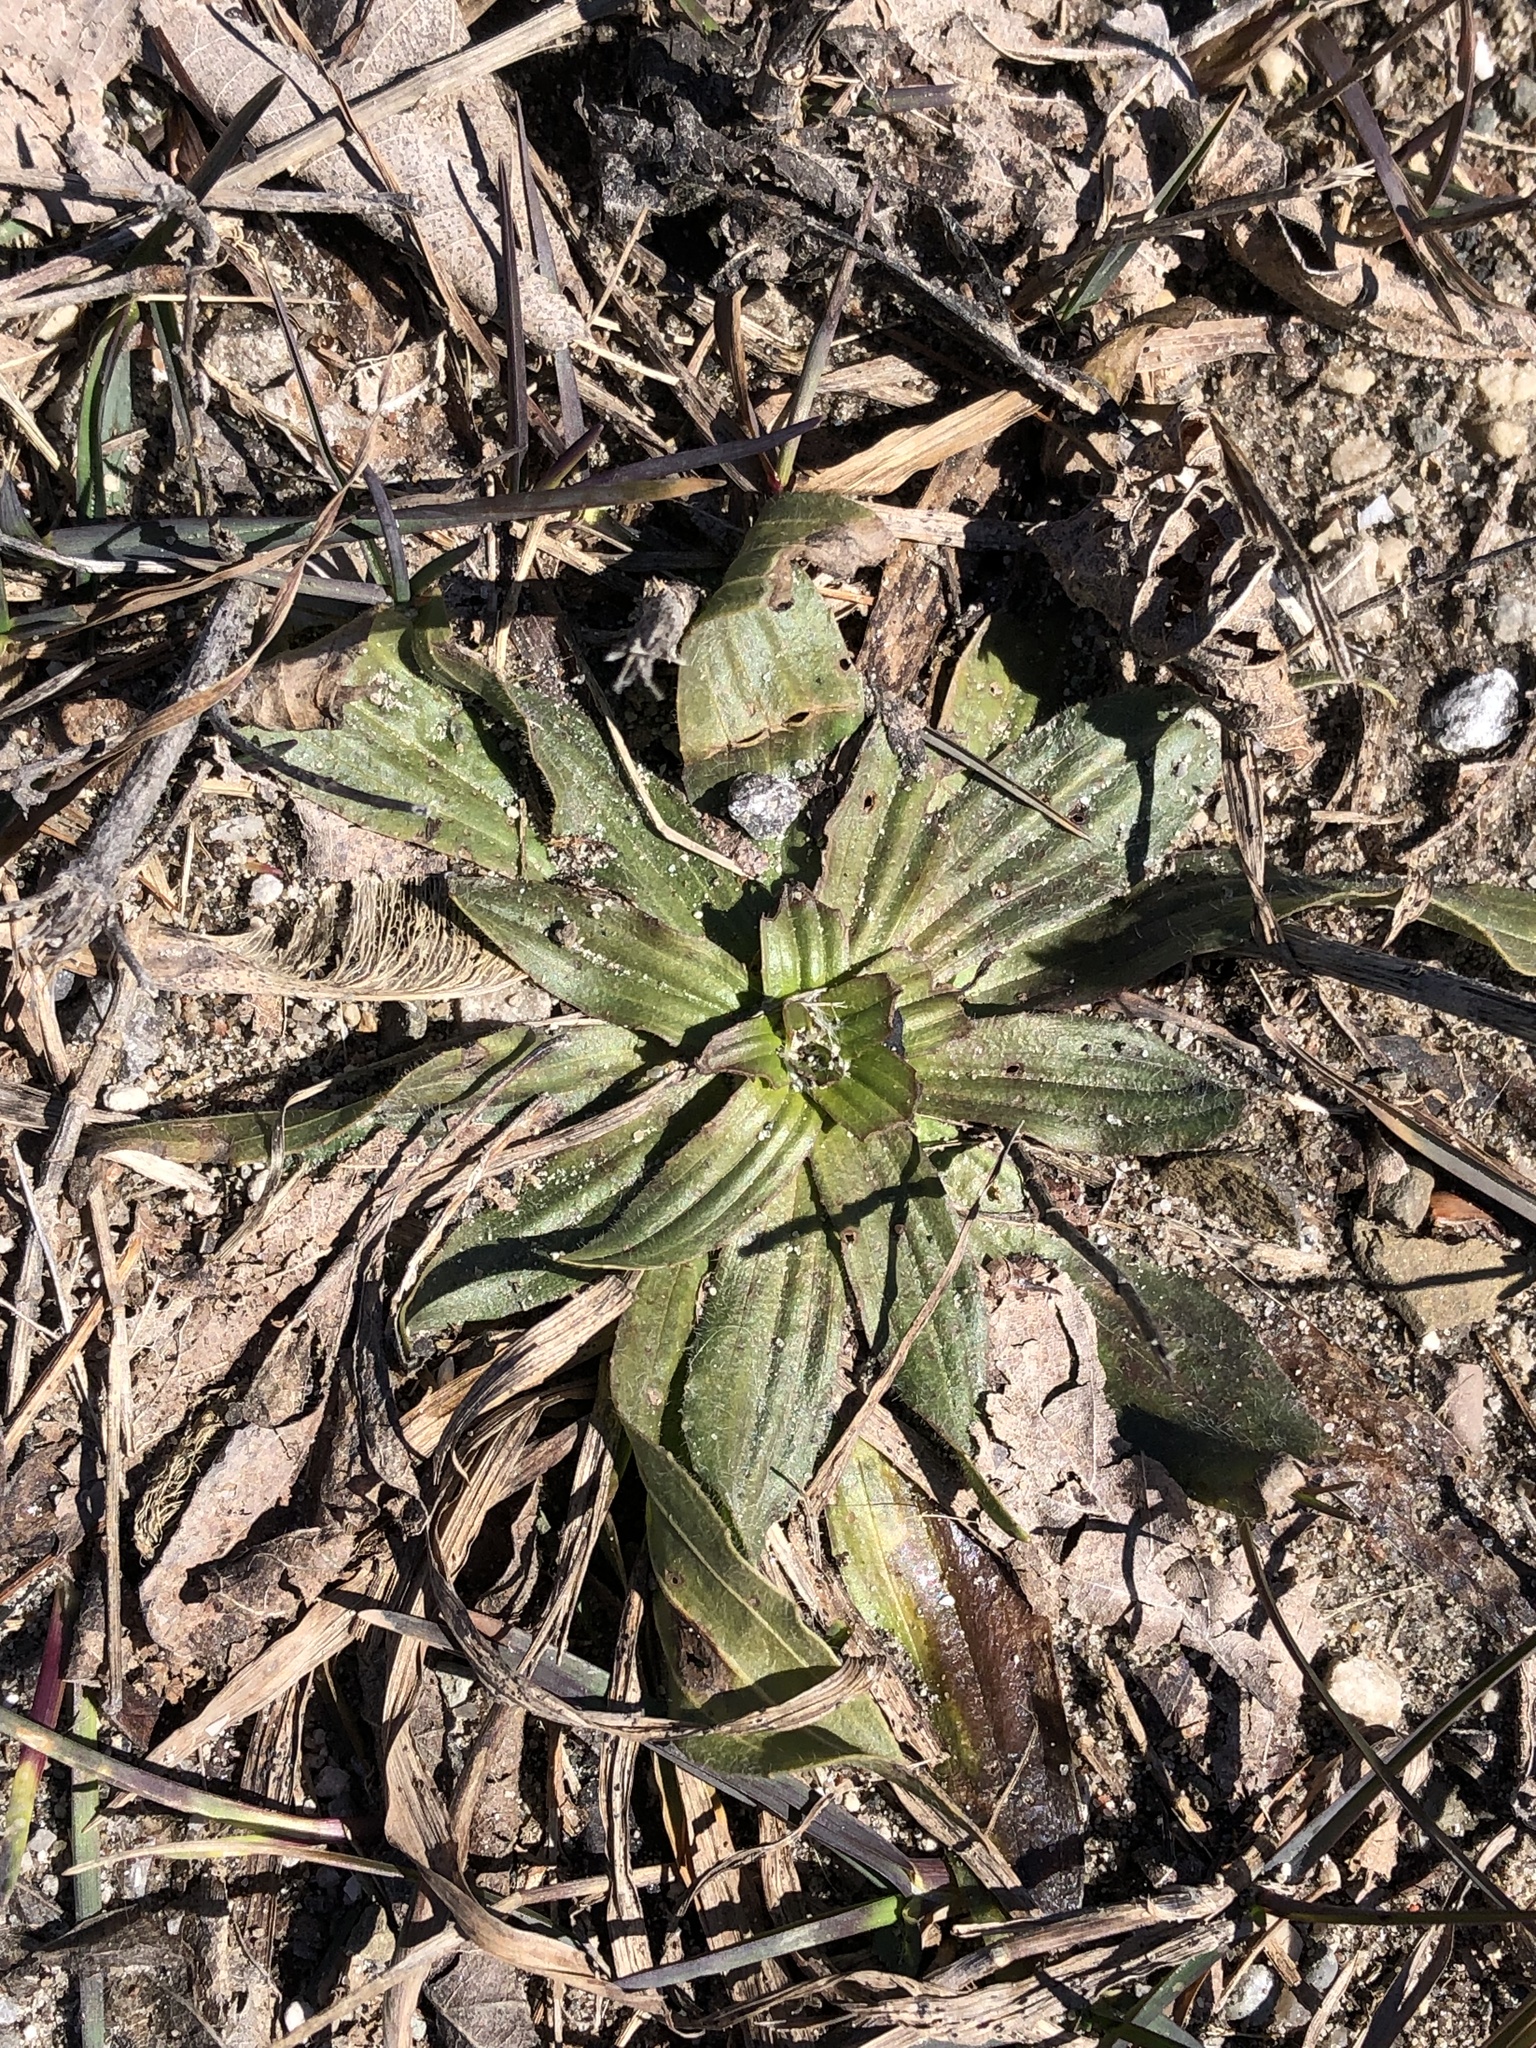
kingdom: Plantae
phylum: Tracheophyta
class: Magnoliopsida
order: Lamiales
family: Plantaginaceae
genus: Plantago
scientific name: Plantago lanceolata
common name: Ribwort plantain
